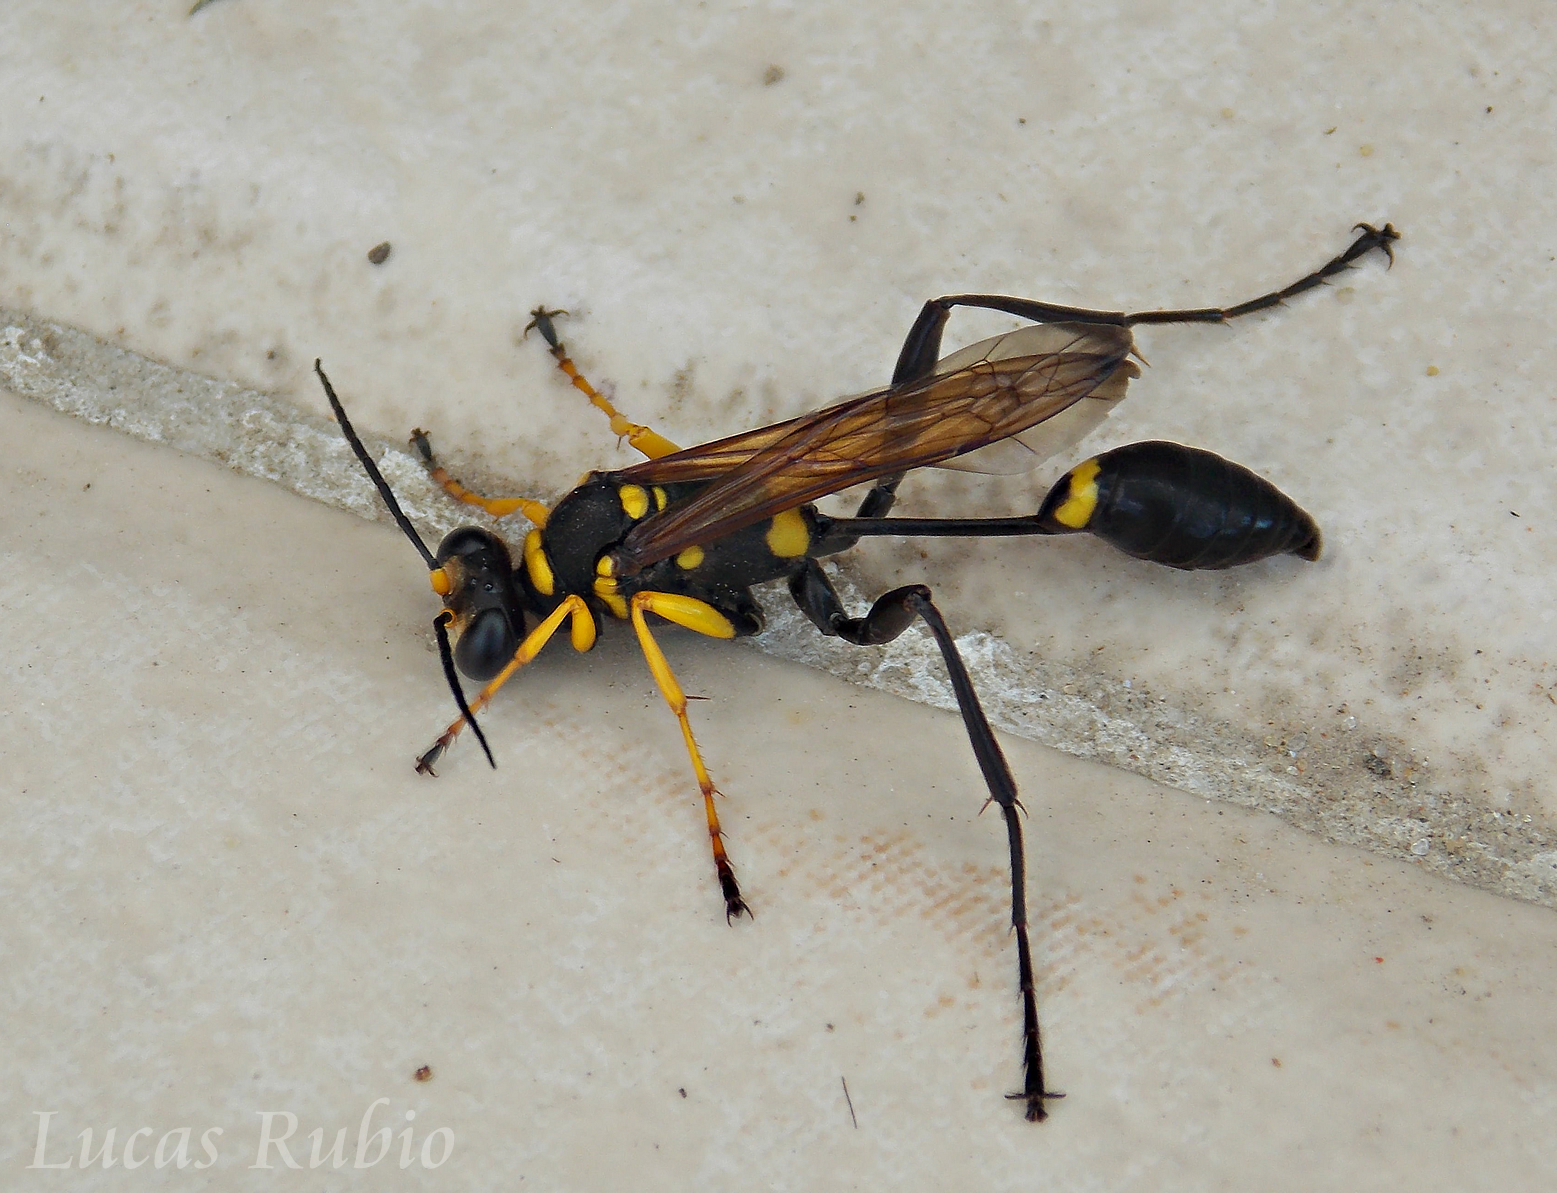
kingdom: Animalia
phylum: Arthropoda
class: Insecta
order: Hymenoptera
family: Sphecidae
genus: Sceliphron
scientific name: Sceliphron asiaticum
